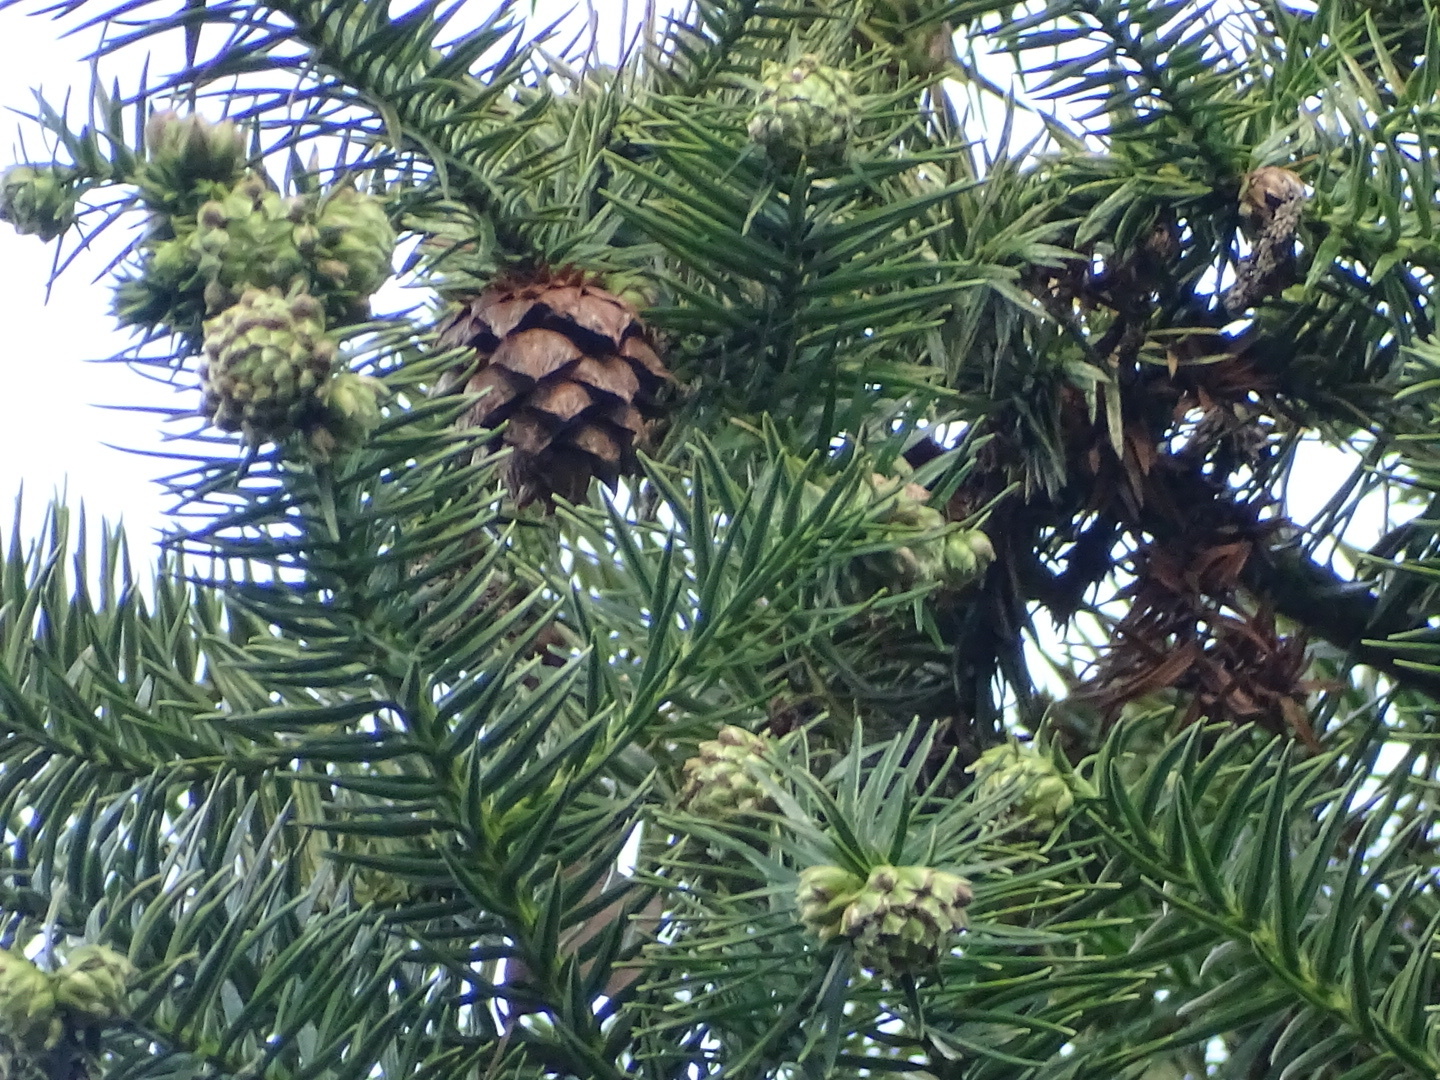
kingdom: Plantae
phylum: Tracheophyta
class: Pinopsida
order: Pinales
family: Cupressaceae
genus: Cunninghamia
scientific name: Cunninghamia lanceolata
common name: Chinese fir
